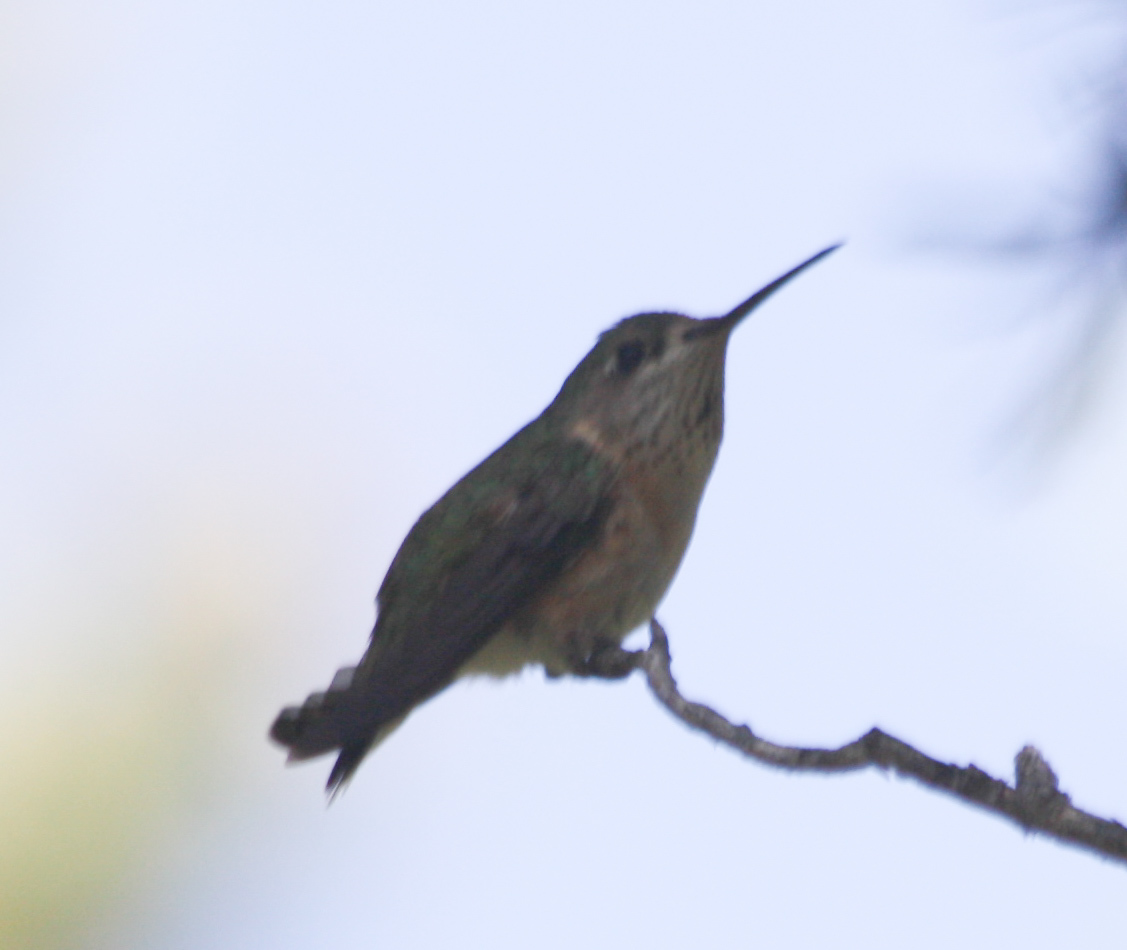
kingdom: Animalia
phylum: Chordata
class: Aves
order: Apodiformes
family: Trochilidae
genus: Selasphorus
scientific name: Selasphorus calliope
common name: Calliope hummingbird
